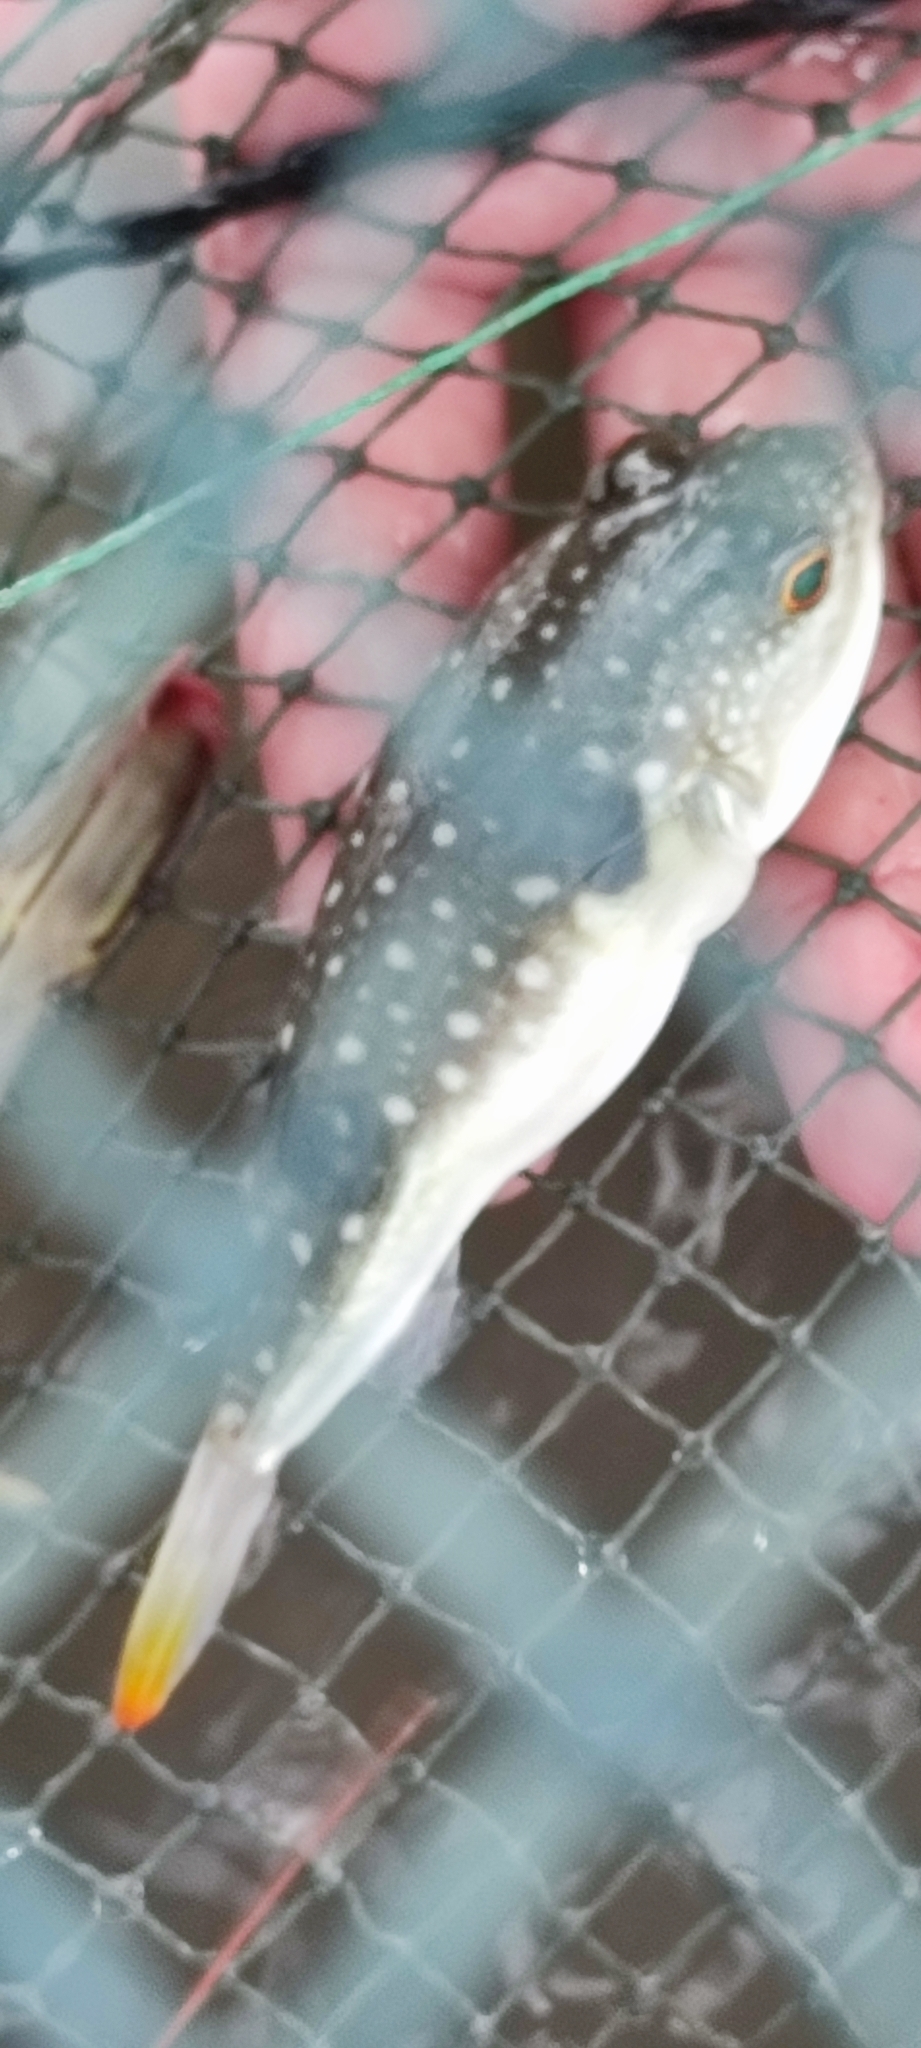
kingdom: Animalia
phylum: Chordata
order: Tetraodontiformes
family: Tetraodontidae
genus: Takifugu
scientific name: Takifugu alboplumbeus
